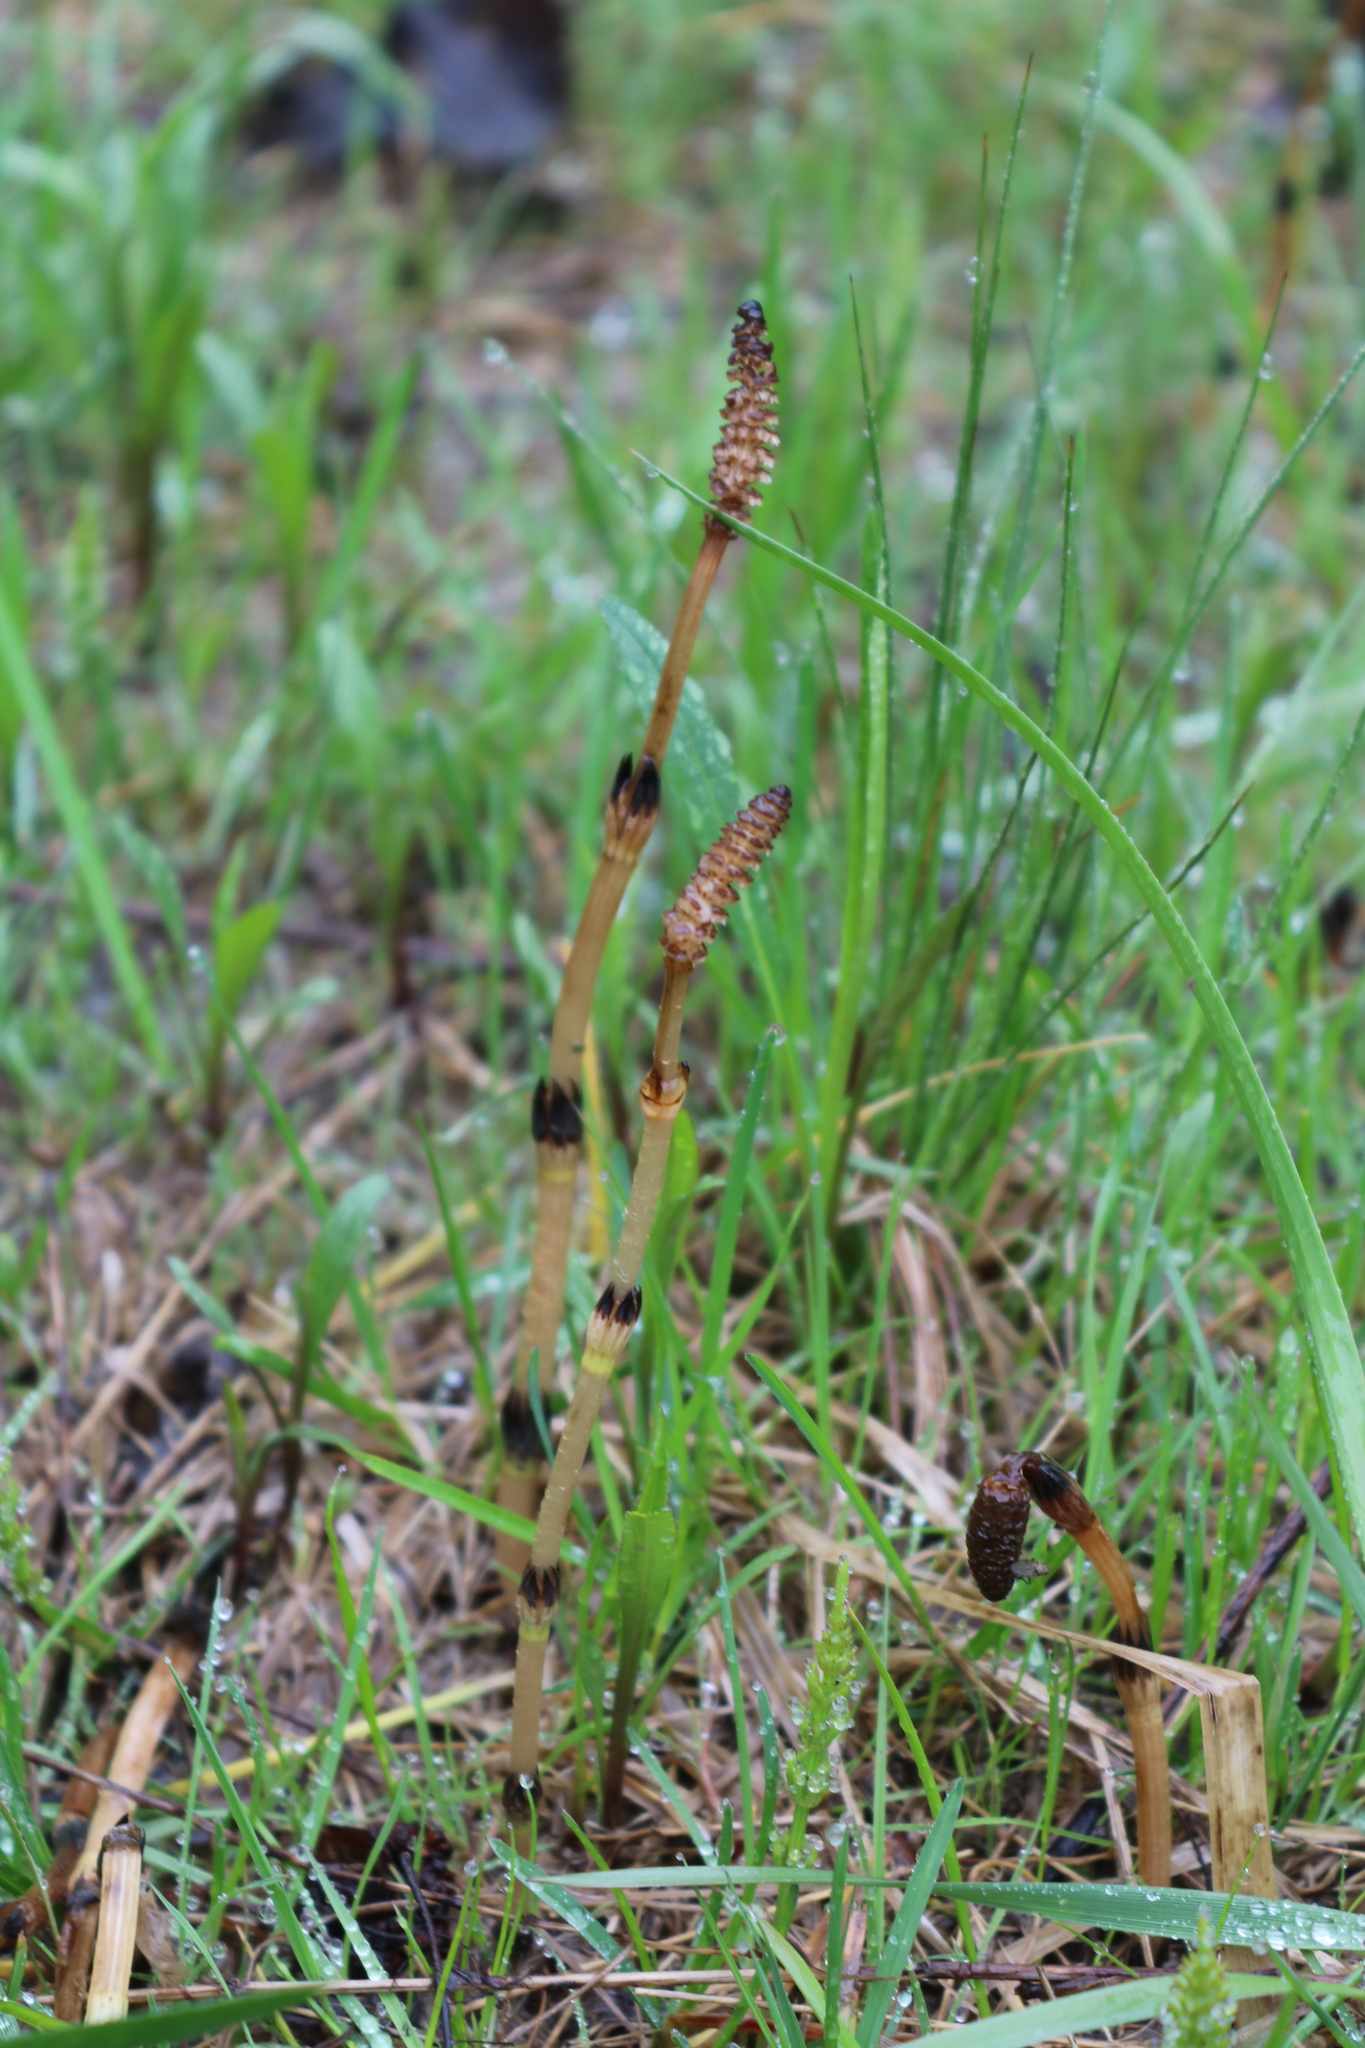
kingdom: Plantae
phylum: Tracheophyta
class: Polypodiopsida
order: Equisetales
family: Equisetaceae
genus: Equisetum
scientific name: Equisetum arvense
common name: Field horsetail
